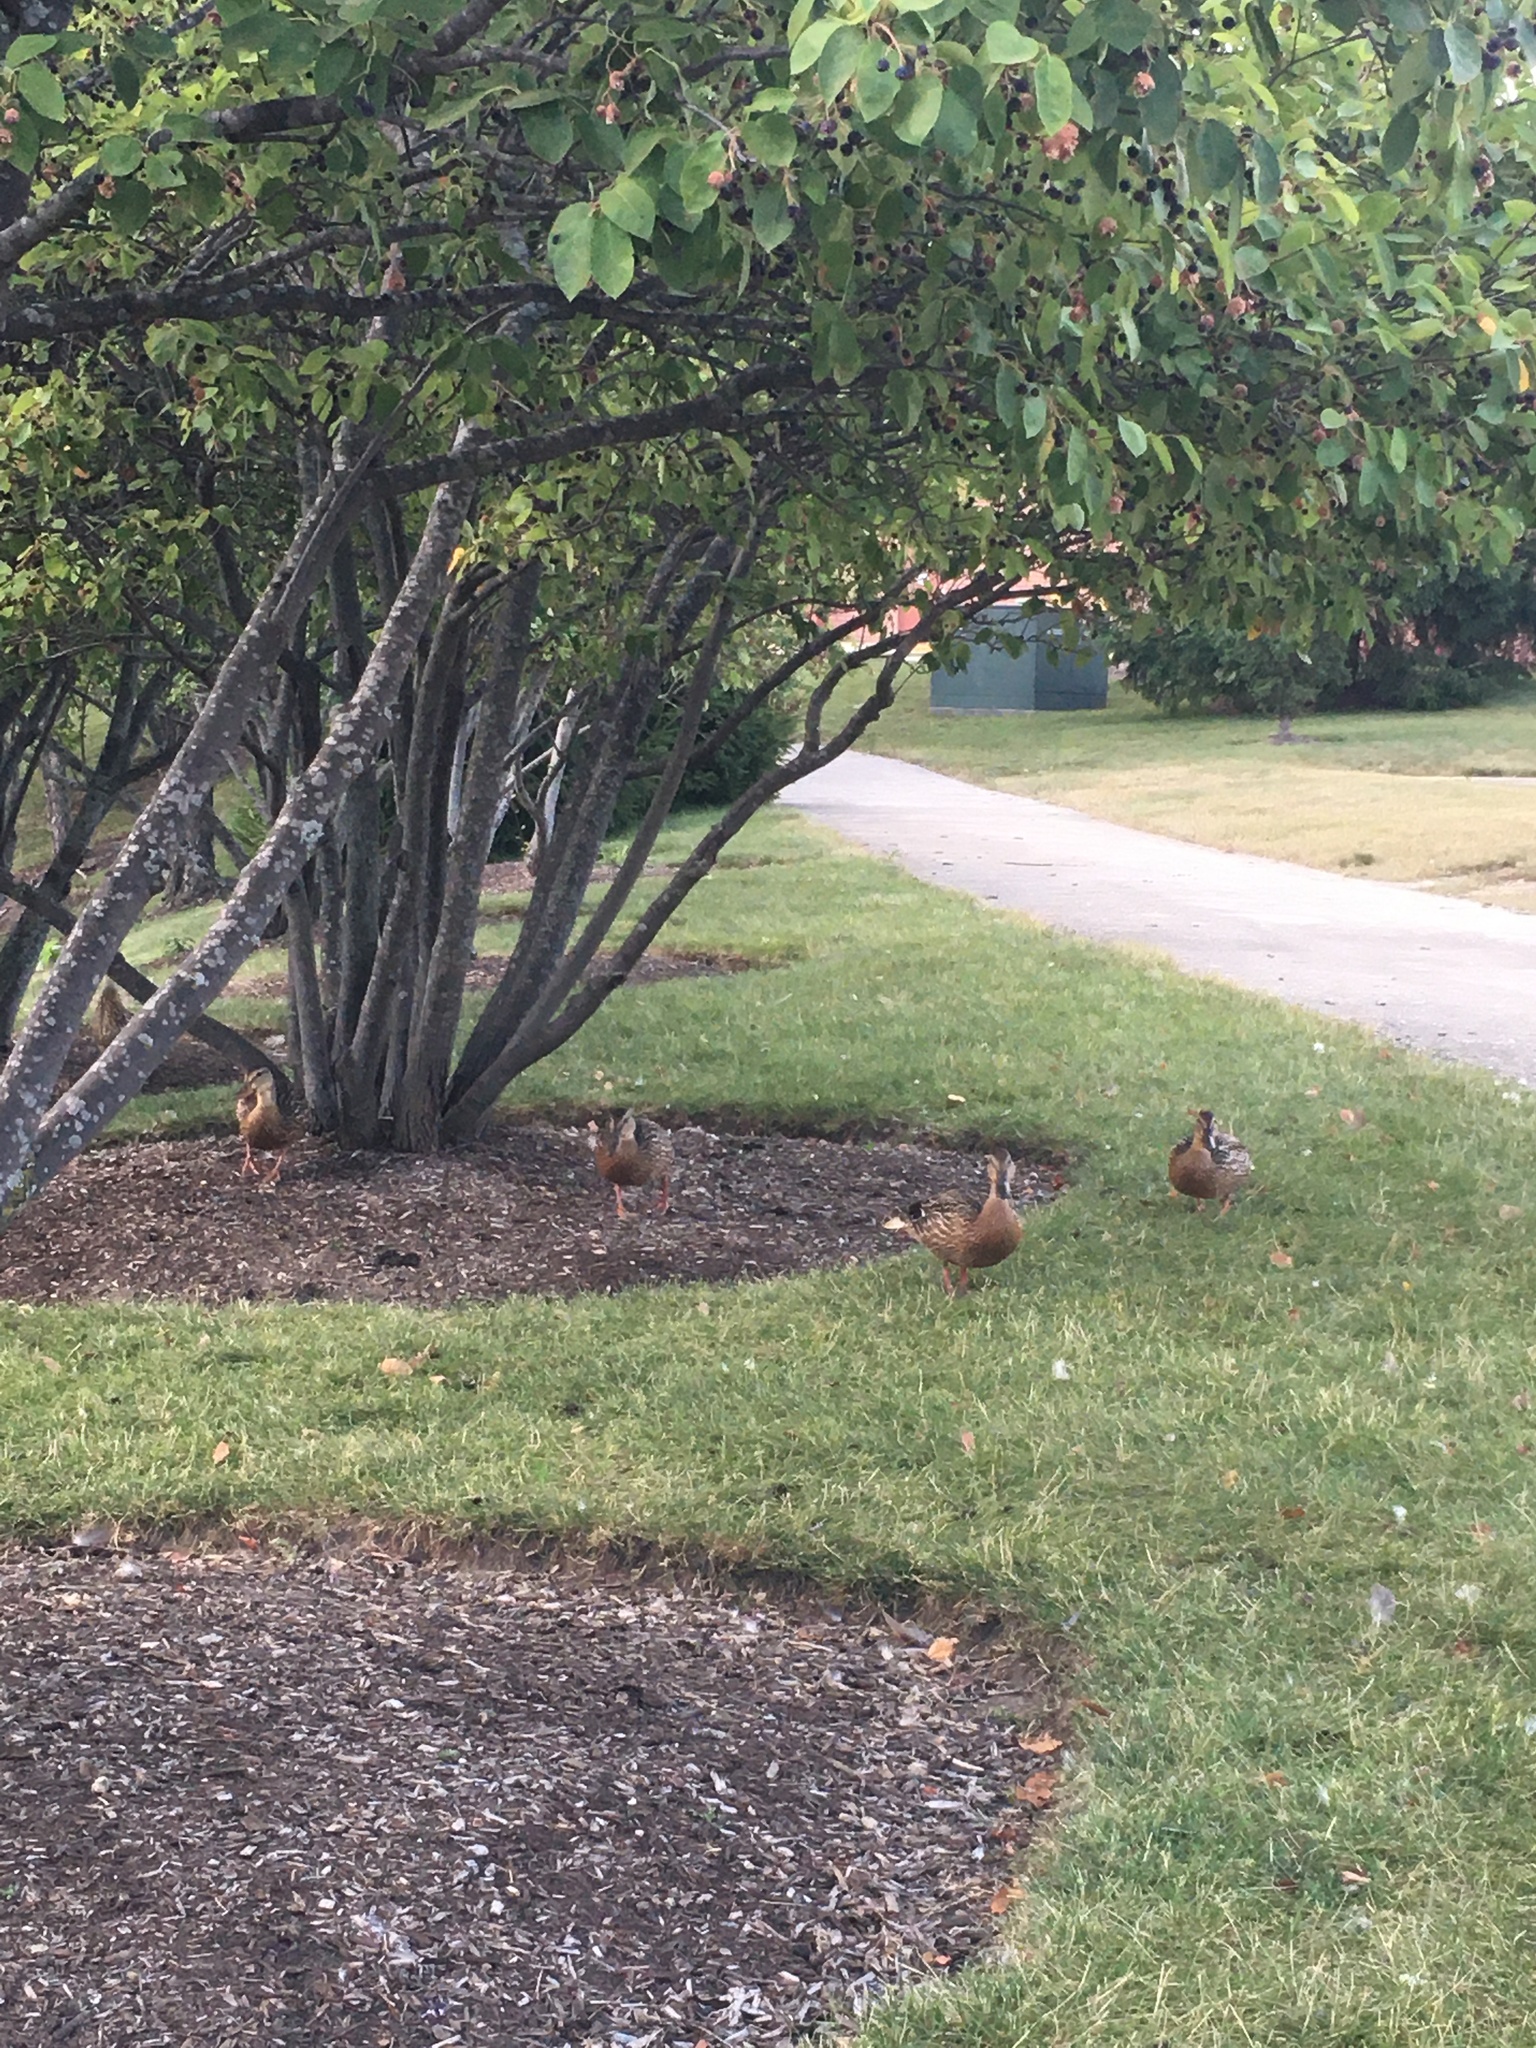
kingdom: Animalia
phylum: Chordata
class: Aves
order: Anseriformes
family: Anatidae
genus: Anas
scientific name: Anas platyrhynchos
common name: Mallard
